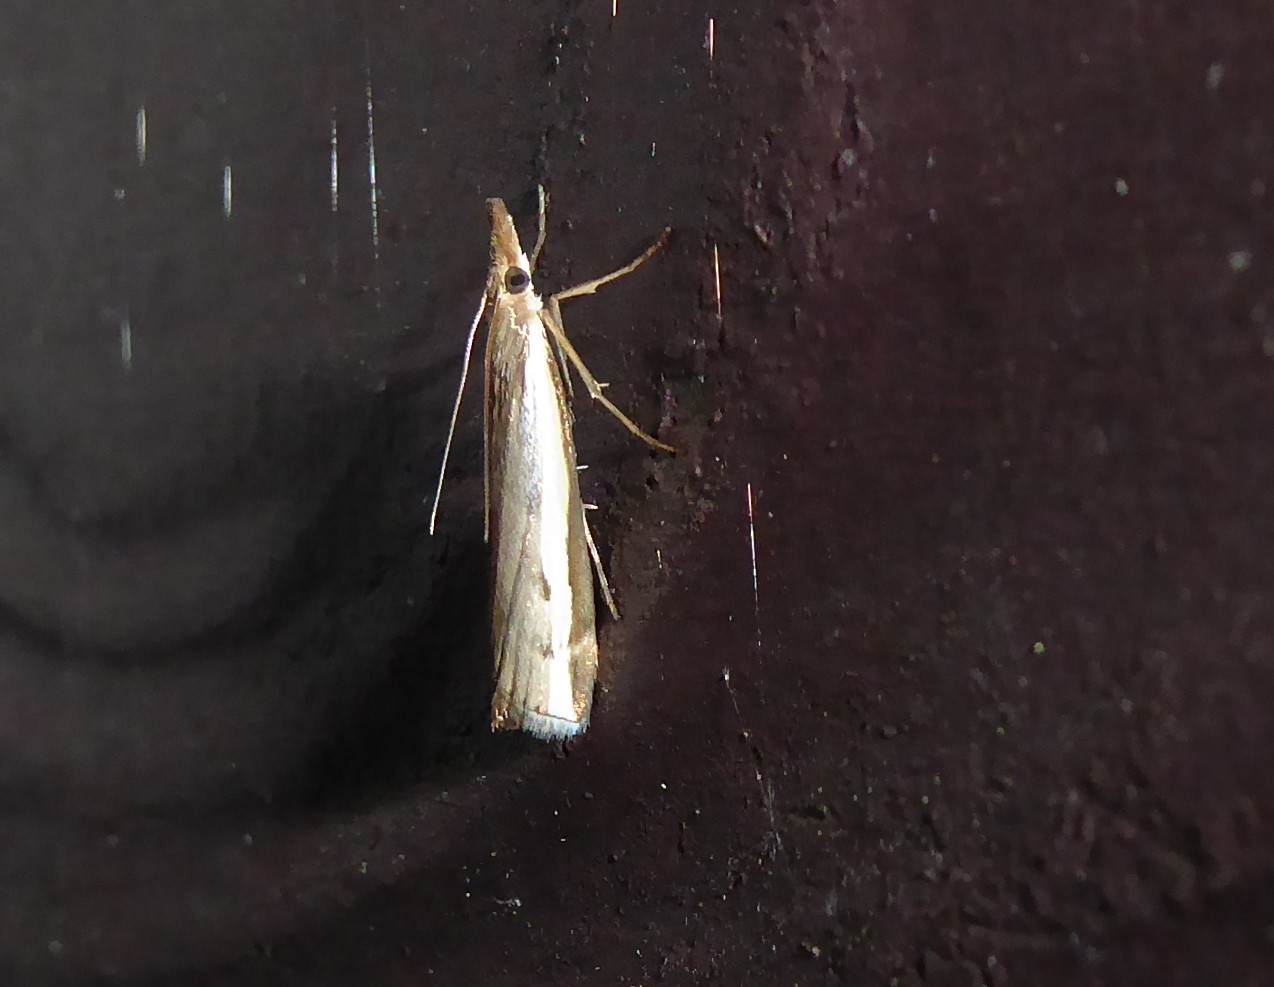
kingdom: Animalia
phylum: Arthropoda
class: Insecta
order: Lepidoptera
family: Crambidae
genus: Orocrambus
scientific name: Orocrambus flexuosellus
